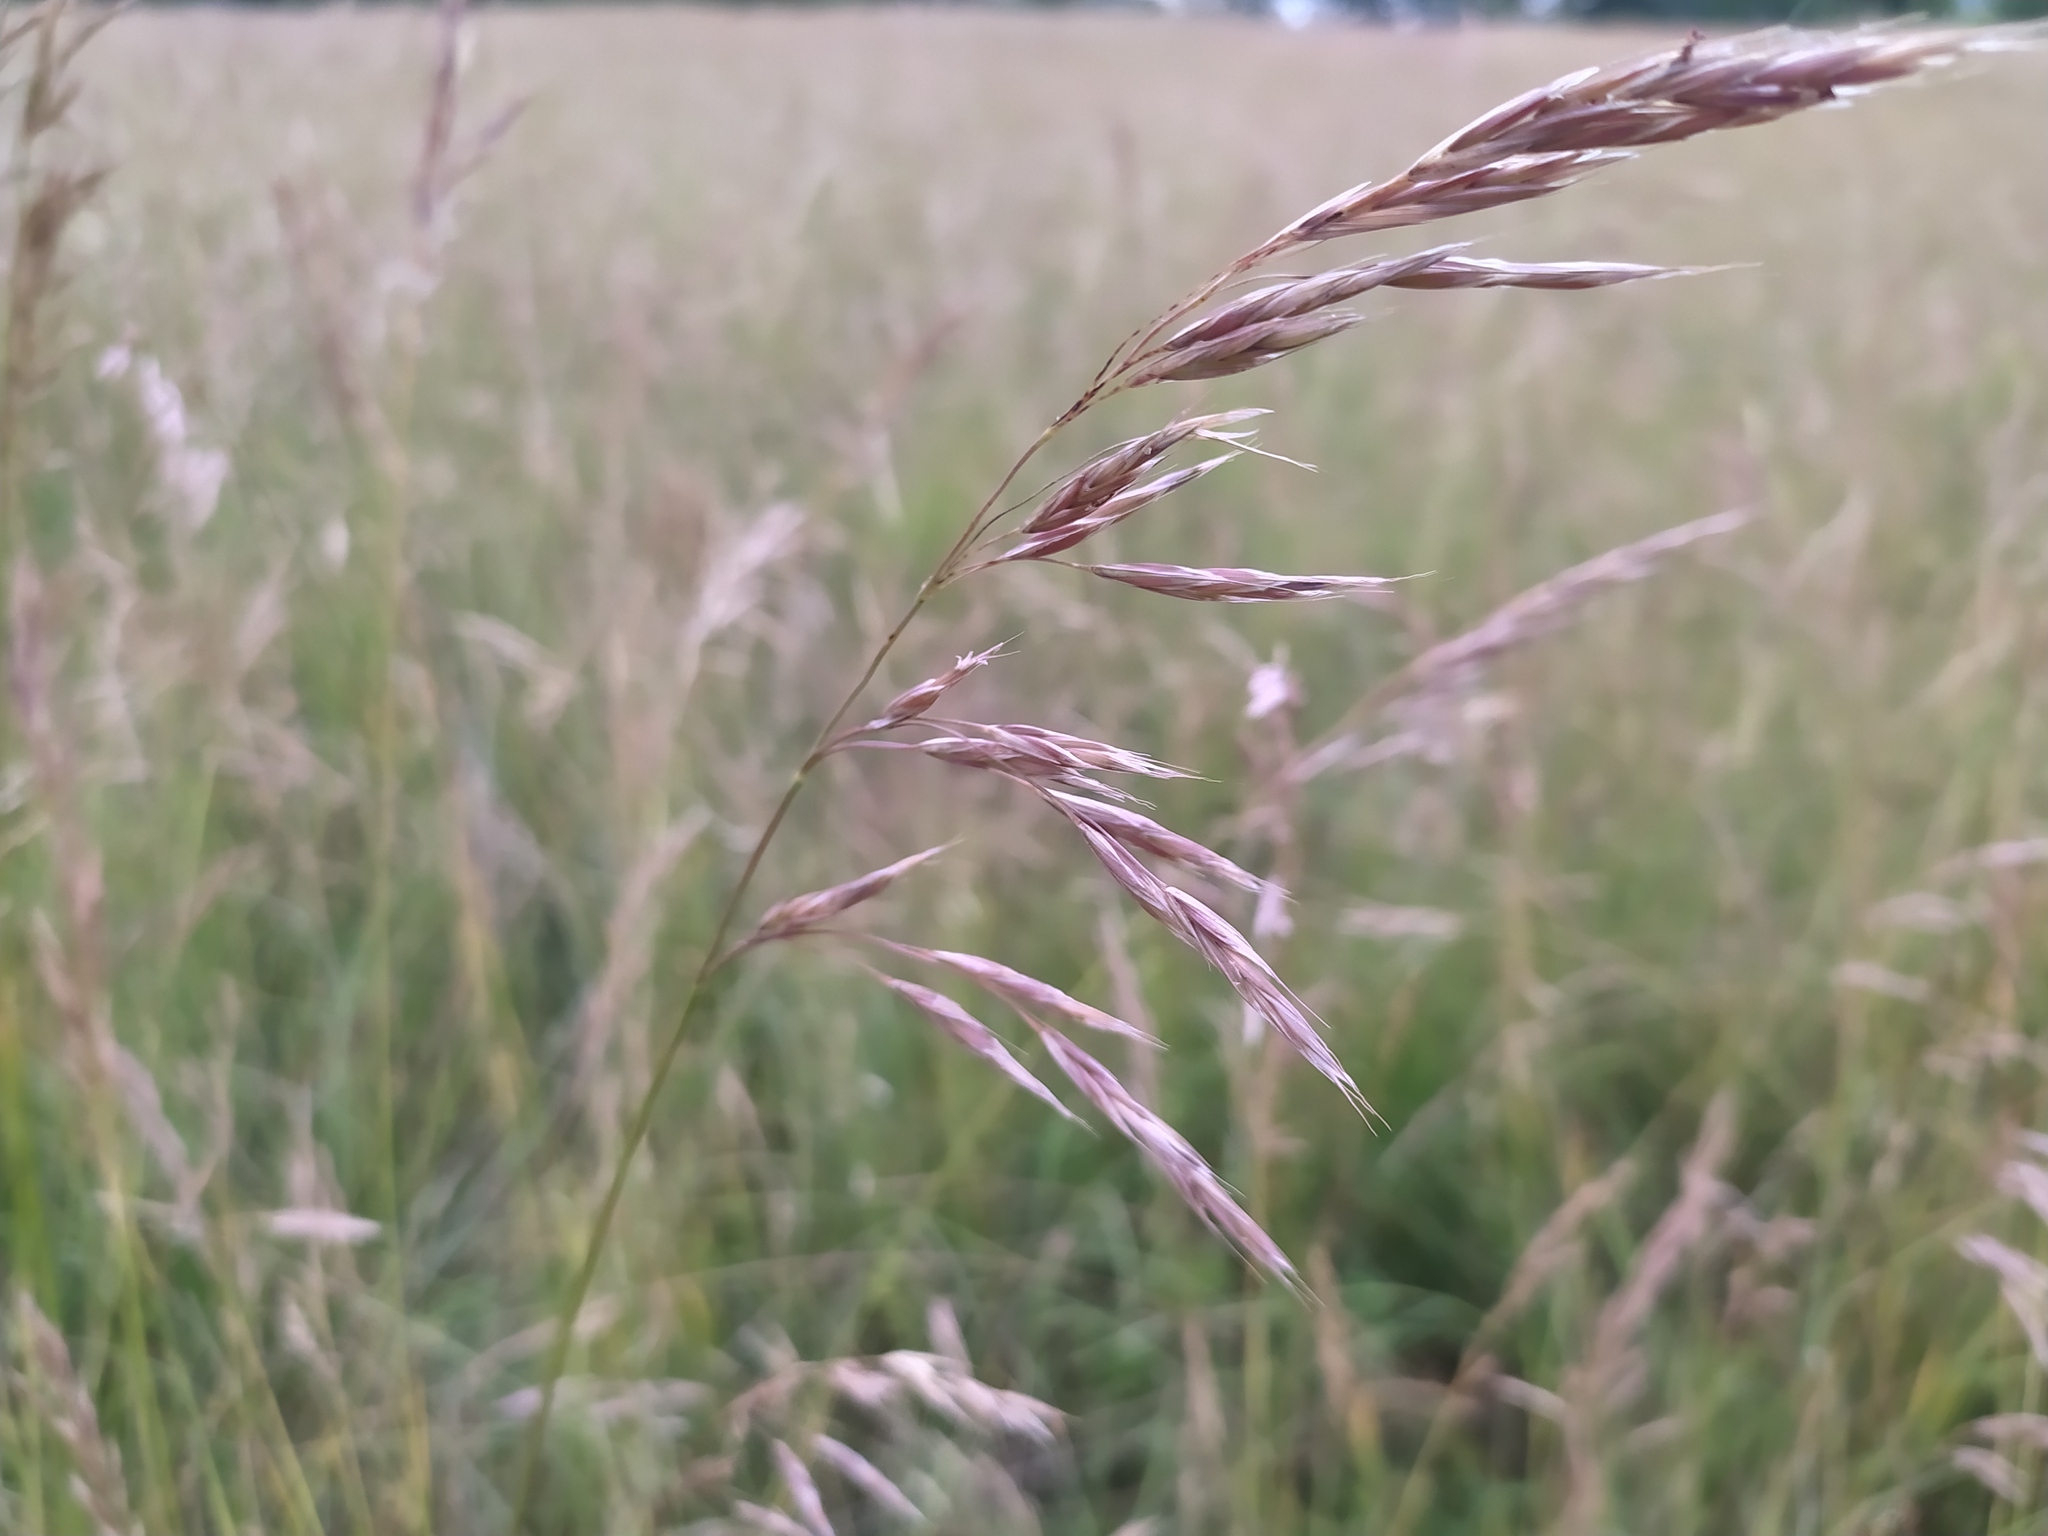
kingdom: Plantae
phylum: Tracheophyta
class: Liliopsida
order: Poales
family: Poaceae
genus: Bromus
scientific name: Bromus erectus
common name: Erect brome
